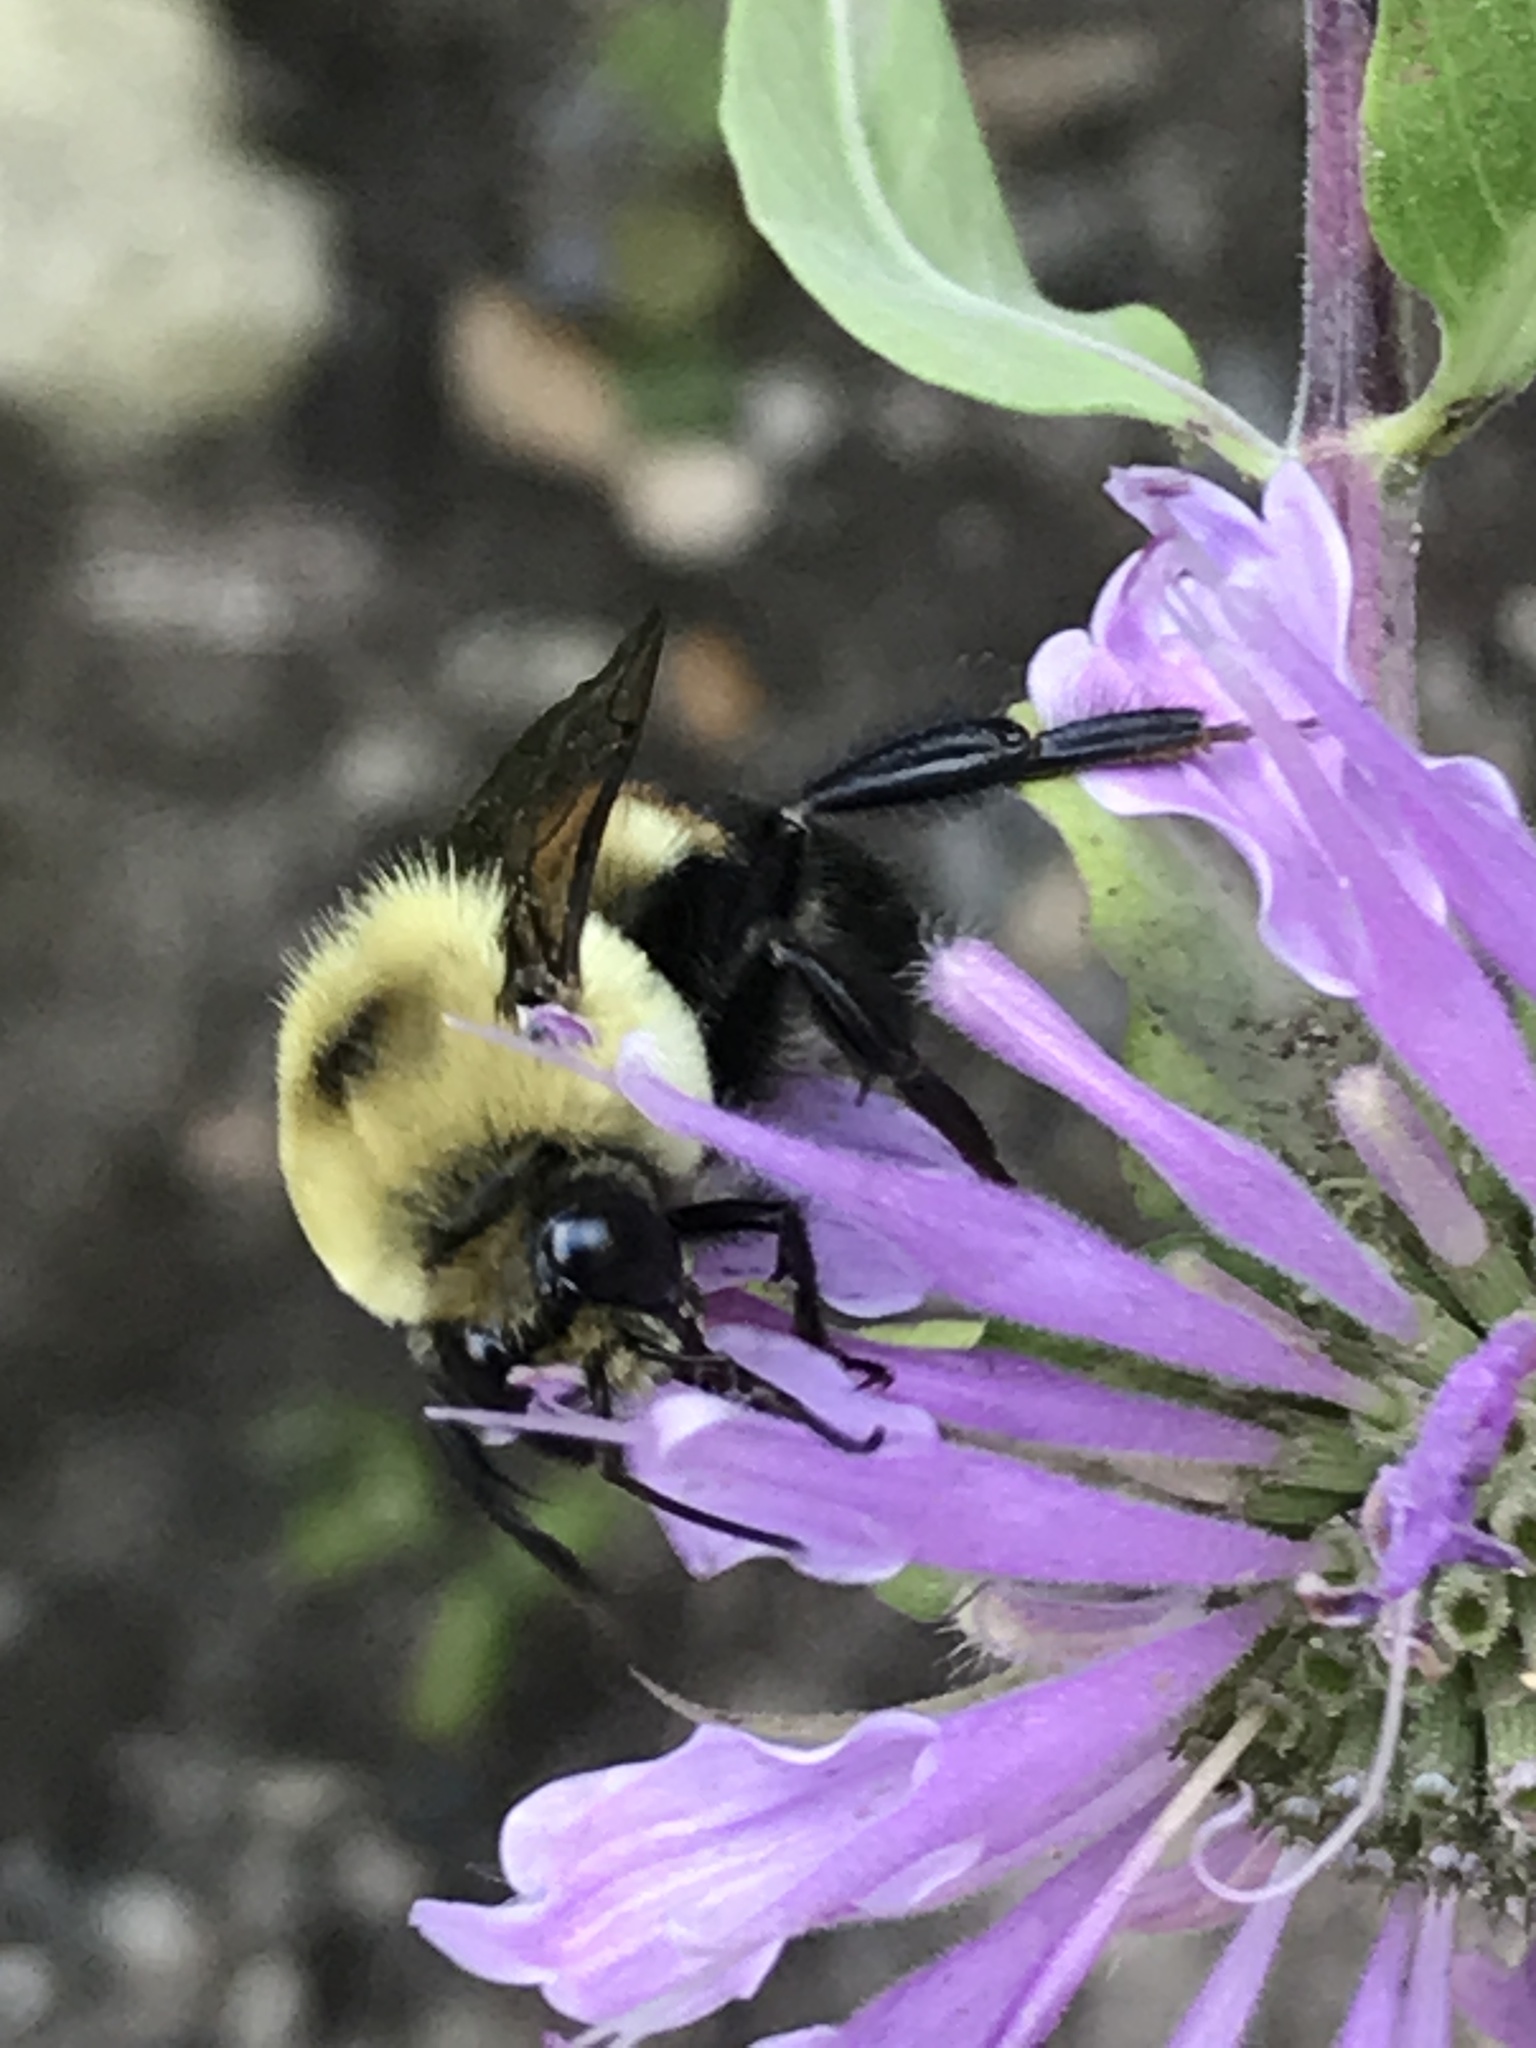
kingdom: Animalia
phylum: Arthropoda
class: Insecta
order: Hymenoptera
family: Apidae
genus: Bombus
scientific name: Bombus griseocollis
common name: Brown-belted bumble bee
